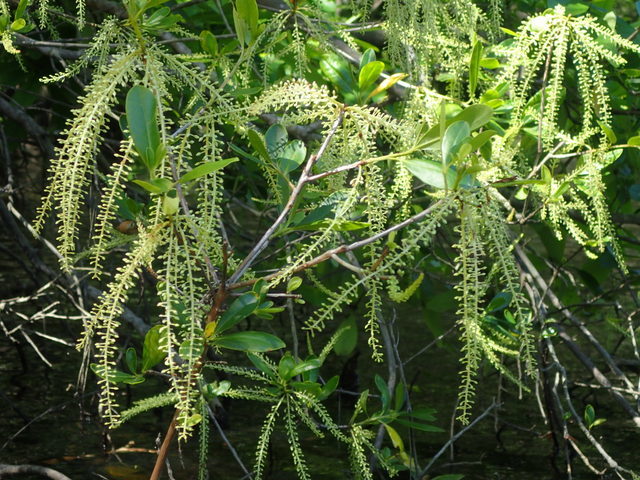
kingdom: Plantae
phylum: Tracheophyta
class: Magnoliopsida
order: Ericales
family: Cyrillaceae
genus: Cyrilla
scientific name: Cyrilla racemiflora
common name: Black titi
